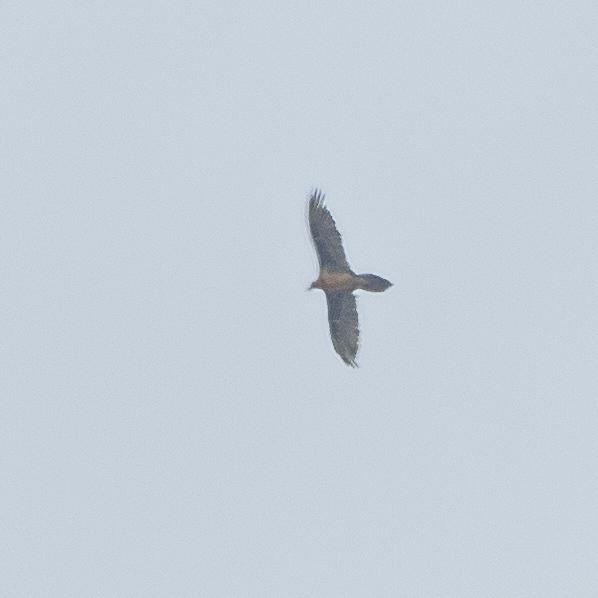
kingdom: Animalia
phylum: Chordata
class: Aves
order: Accipitriformes
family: Accipitridae
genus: Gypaetus
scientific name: Gypaetus barbatus
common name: Bearded vulture
